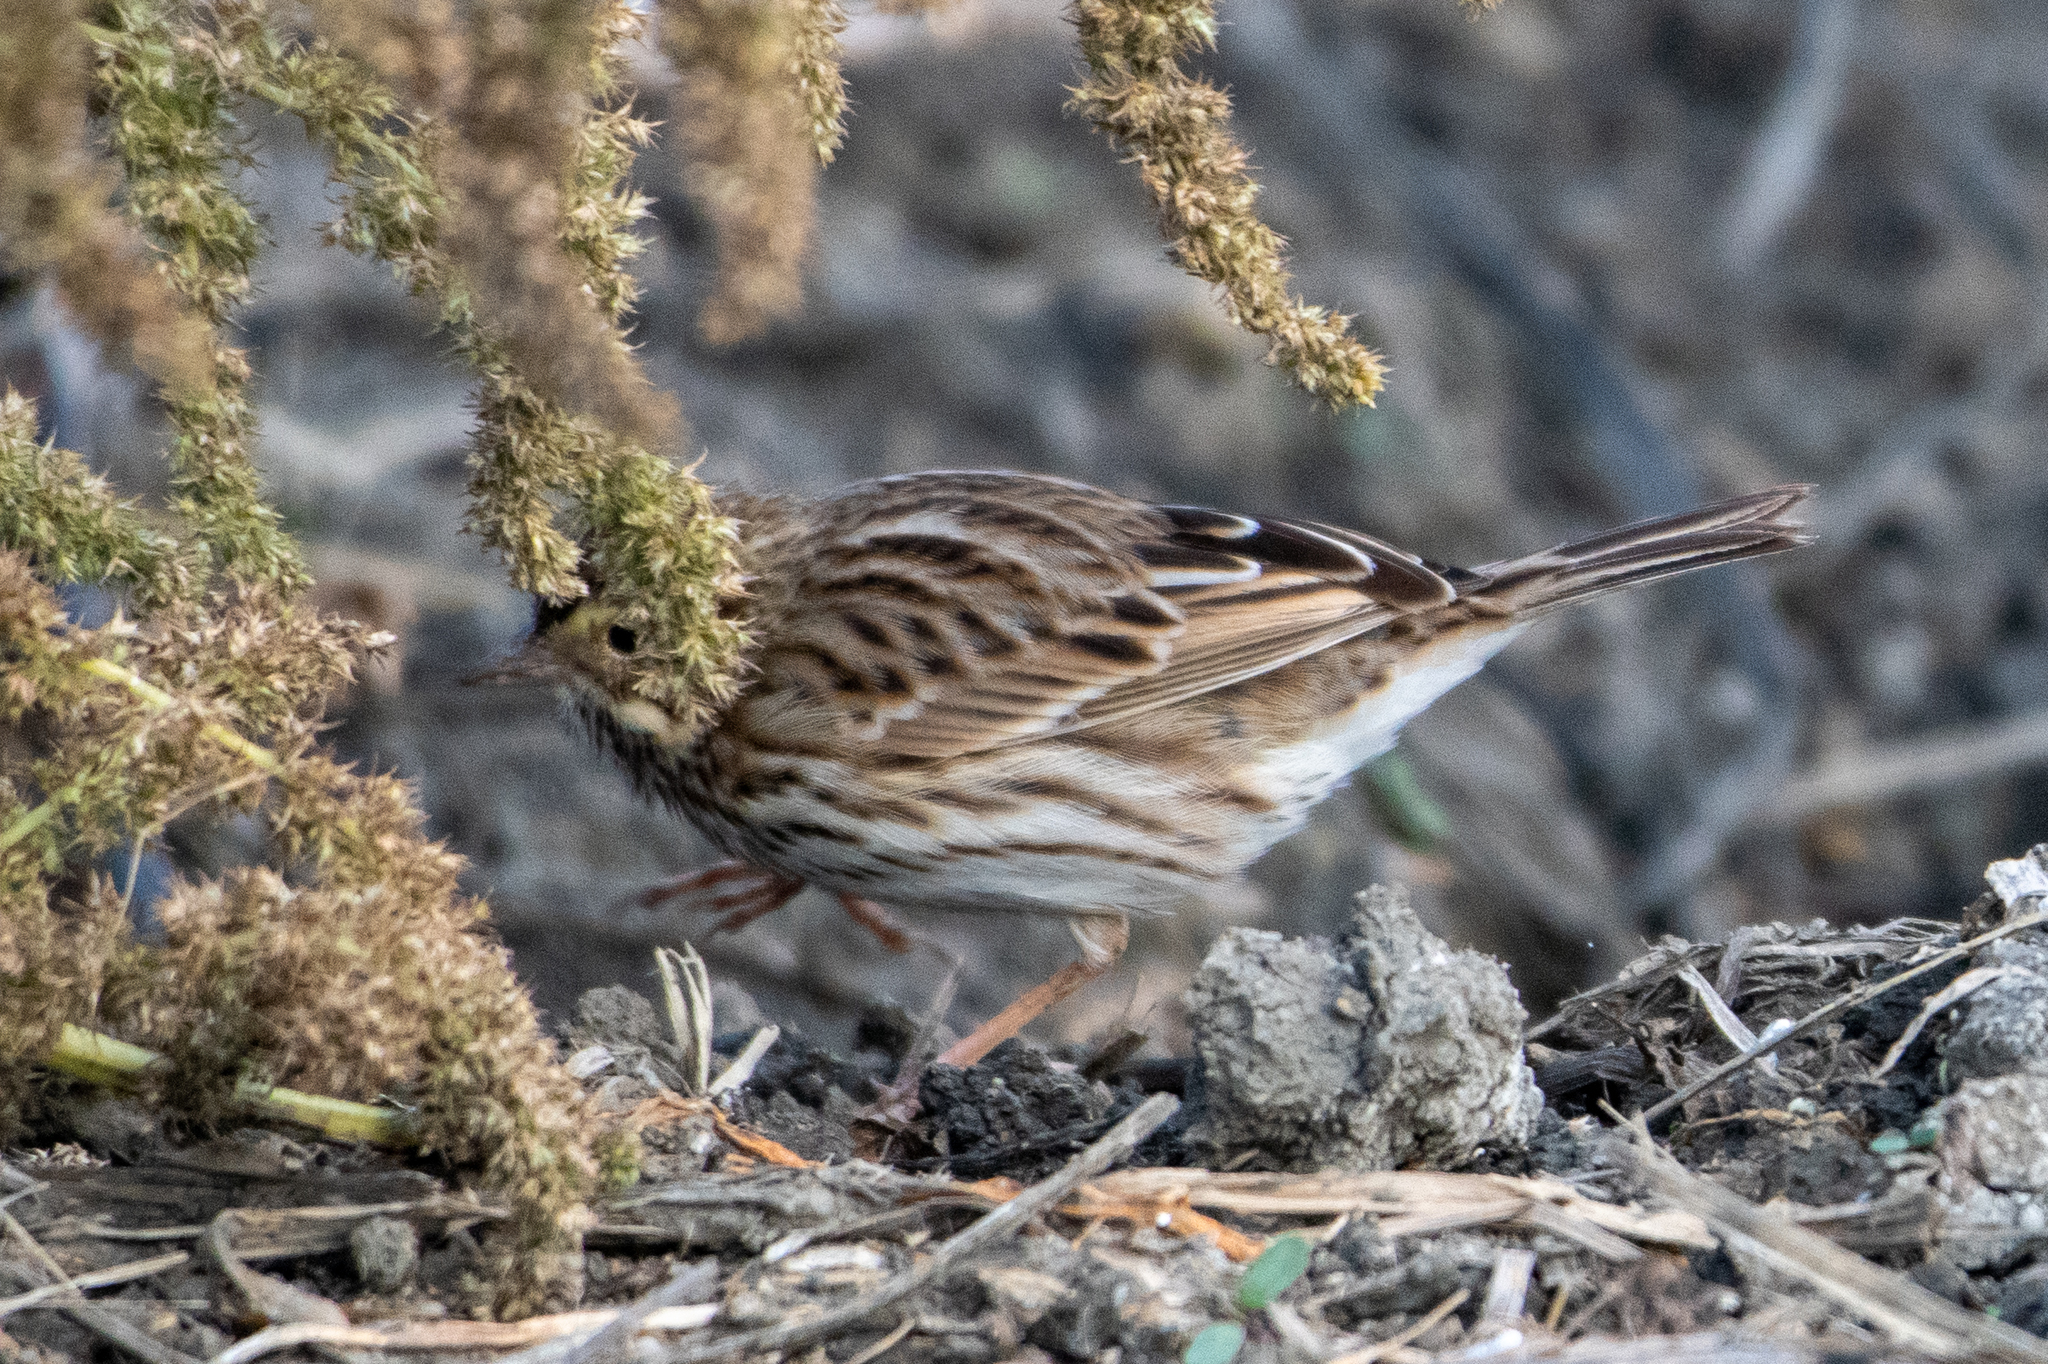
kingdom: Animalia
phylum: Chordata
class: Aves
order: Passeriformes
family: Passerellidae
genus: Passerculus
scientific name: Passerculus sandwichensis
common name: Savannah sparrow
